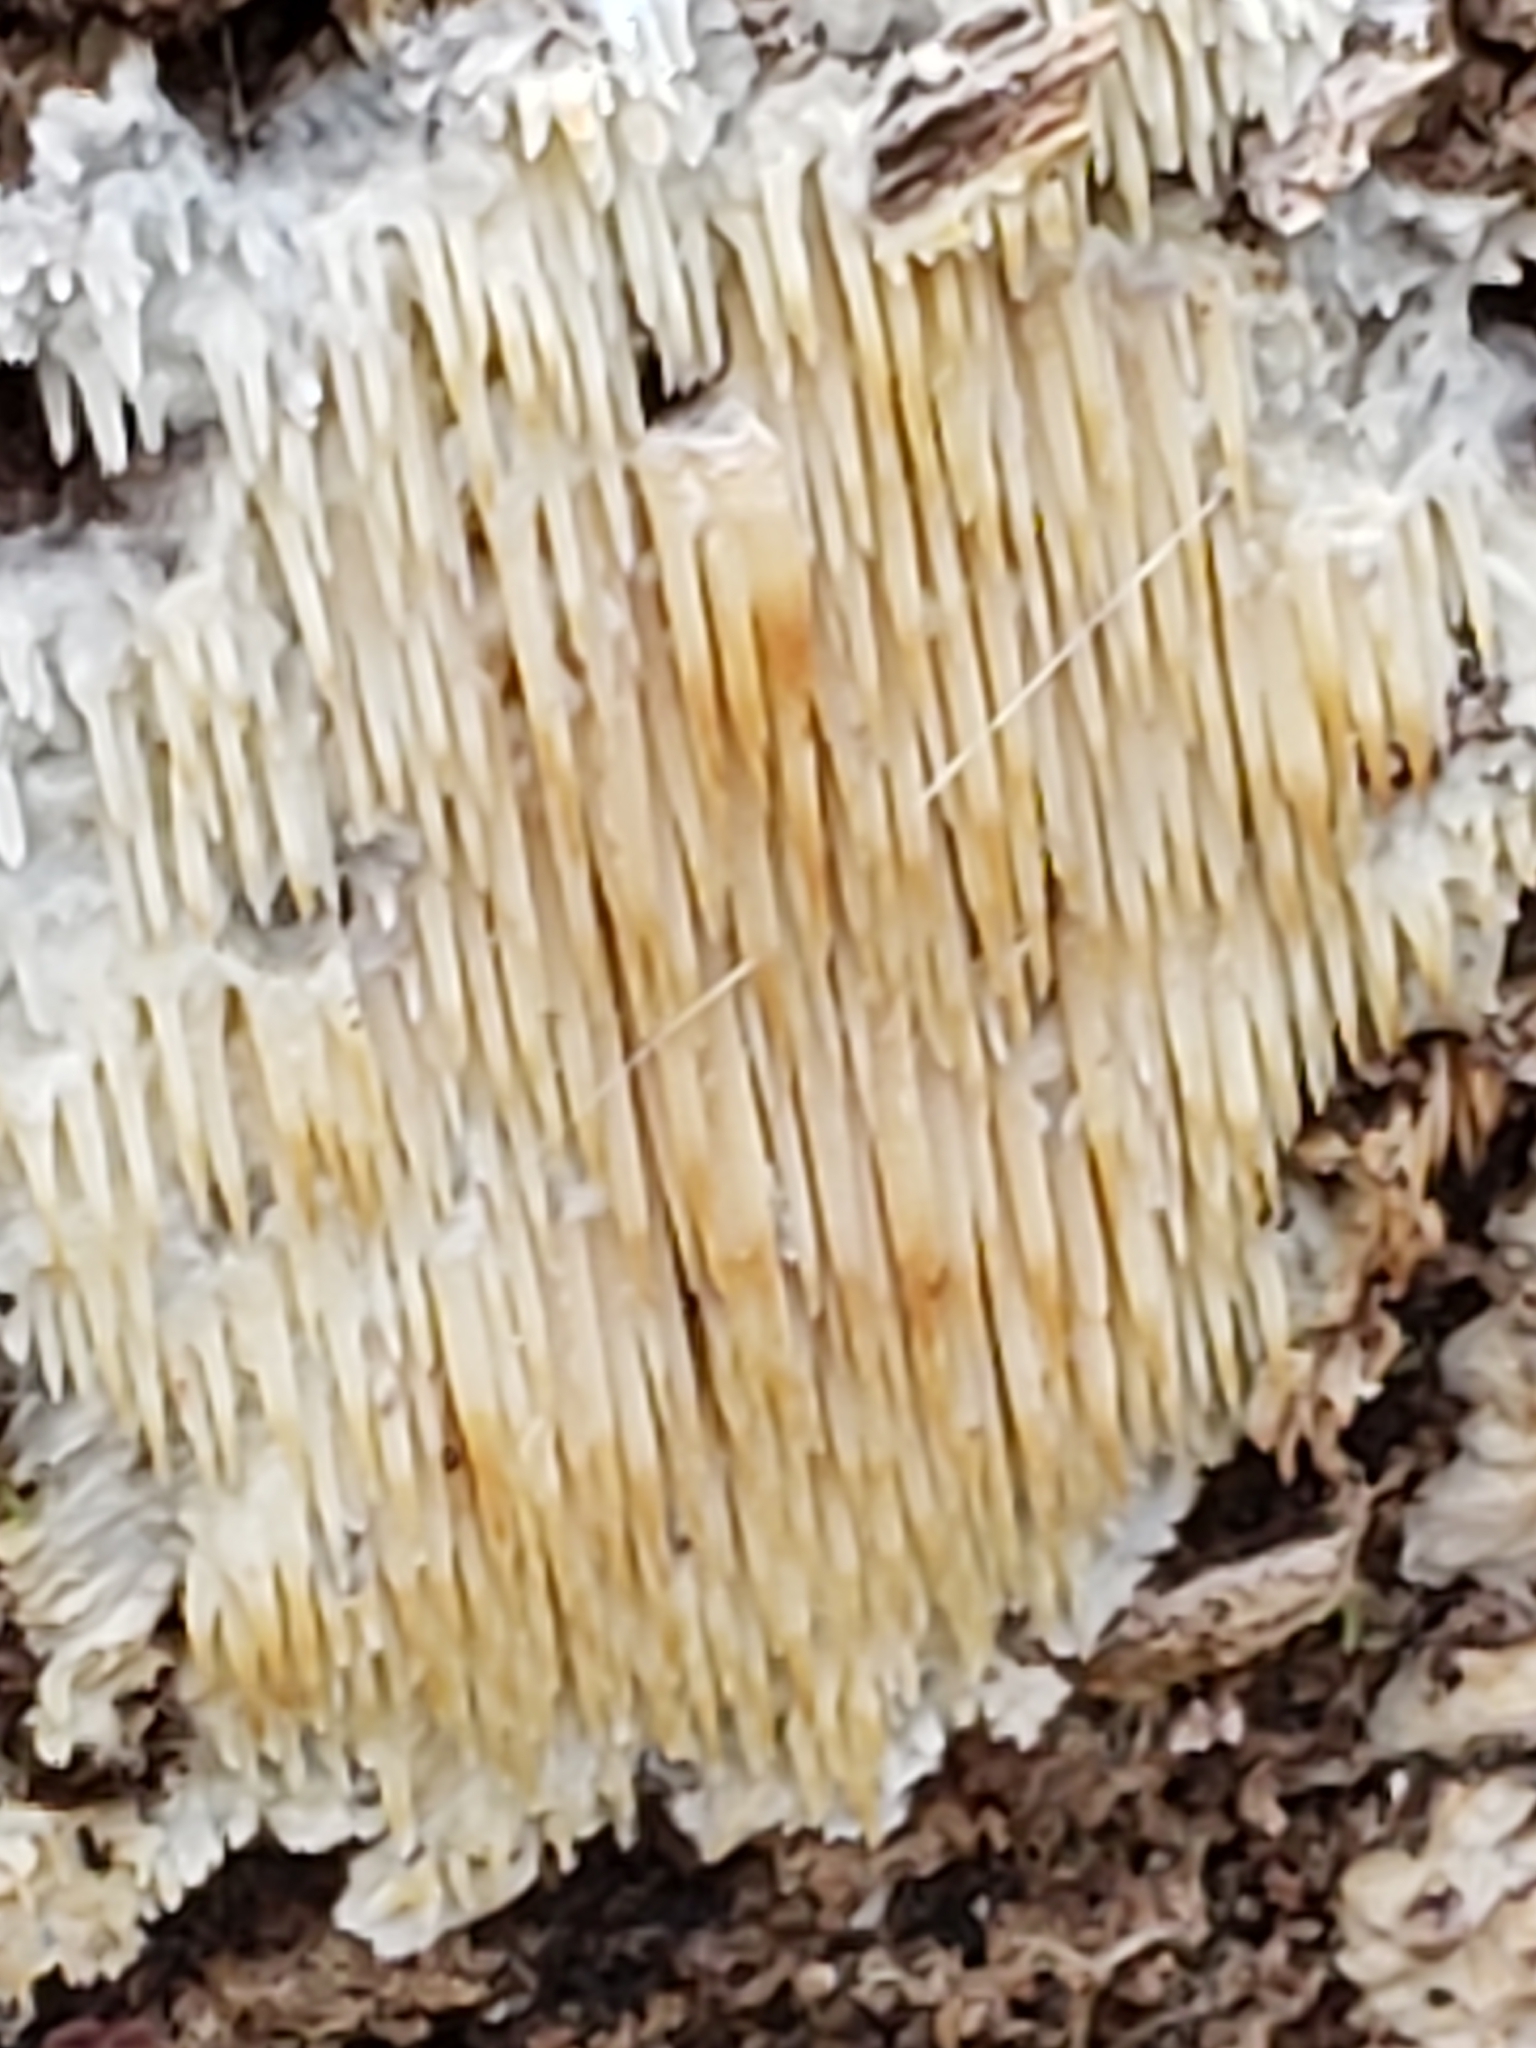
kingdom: Fungi
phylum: Basidiomycota
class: Agaricomycetes
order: Agaricales
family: Radulomycetaceae
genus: Radulomyces
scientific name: Radulomyces copelandii
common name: Asian beauty
